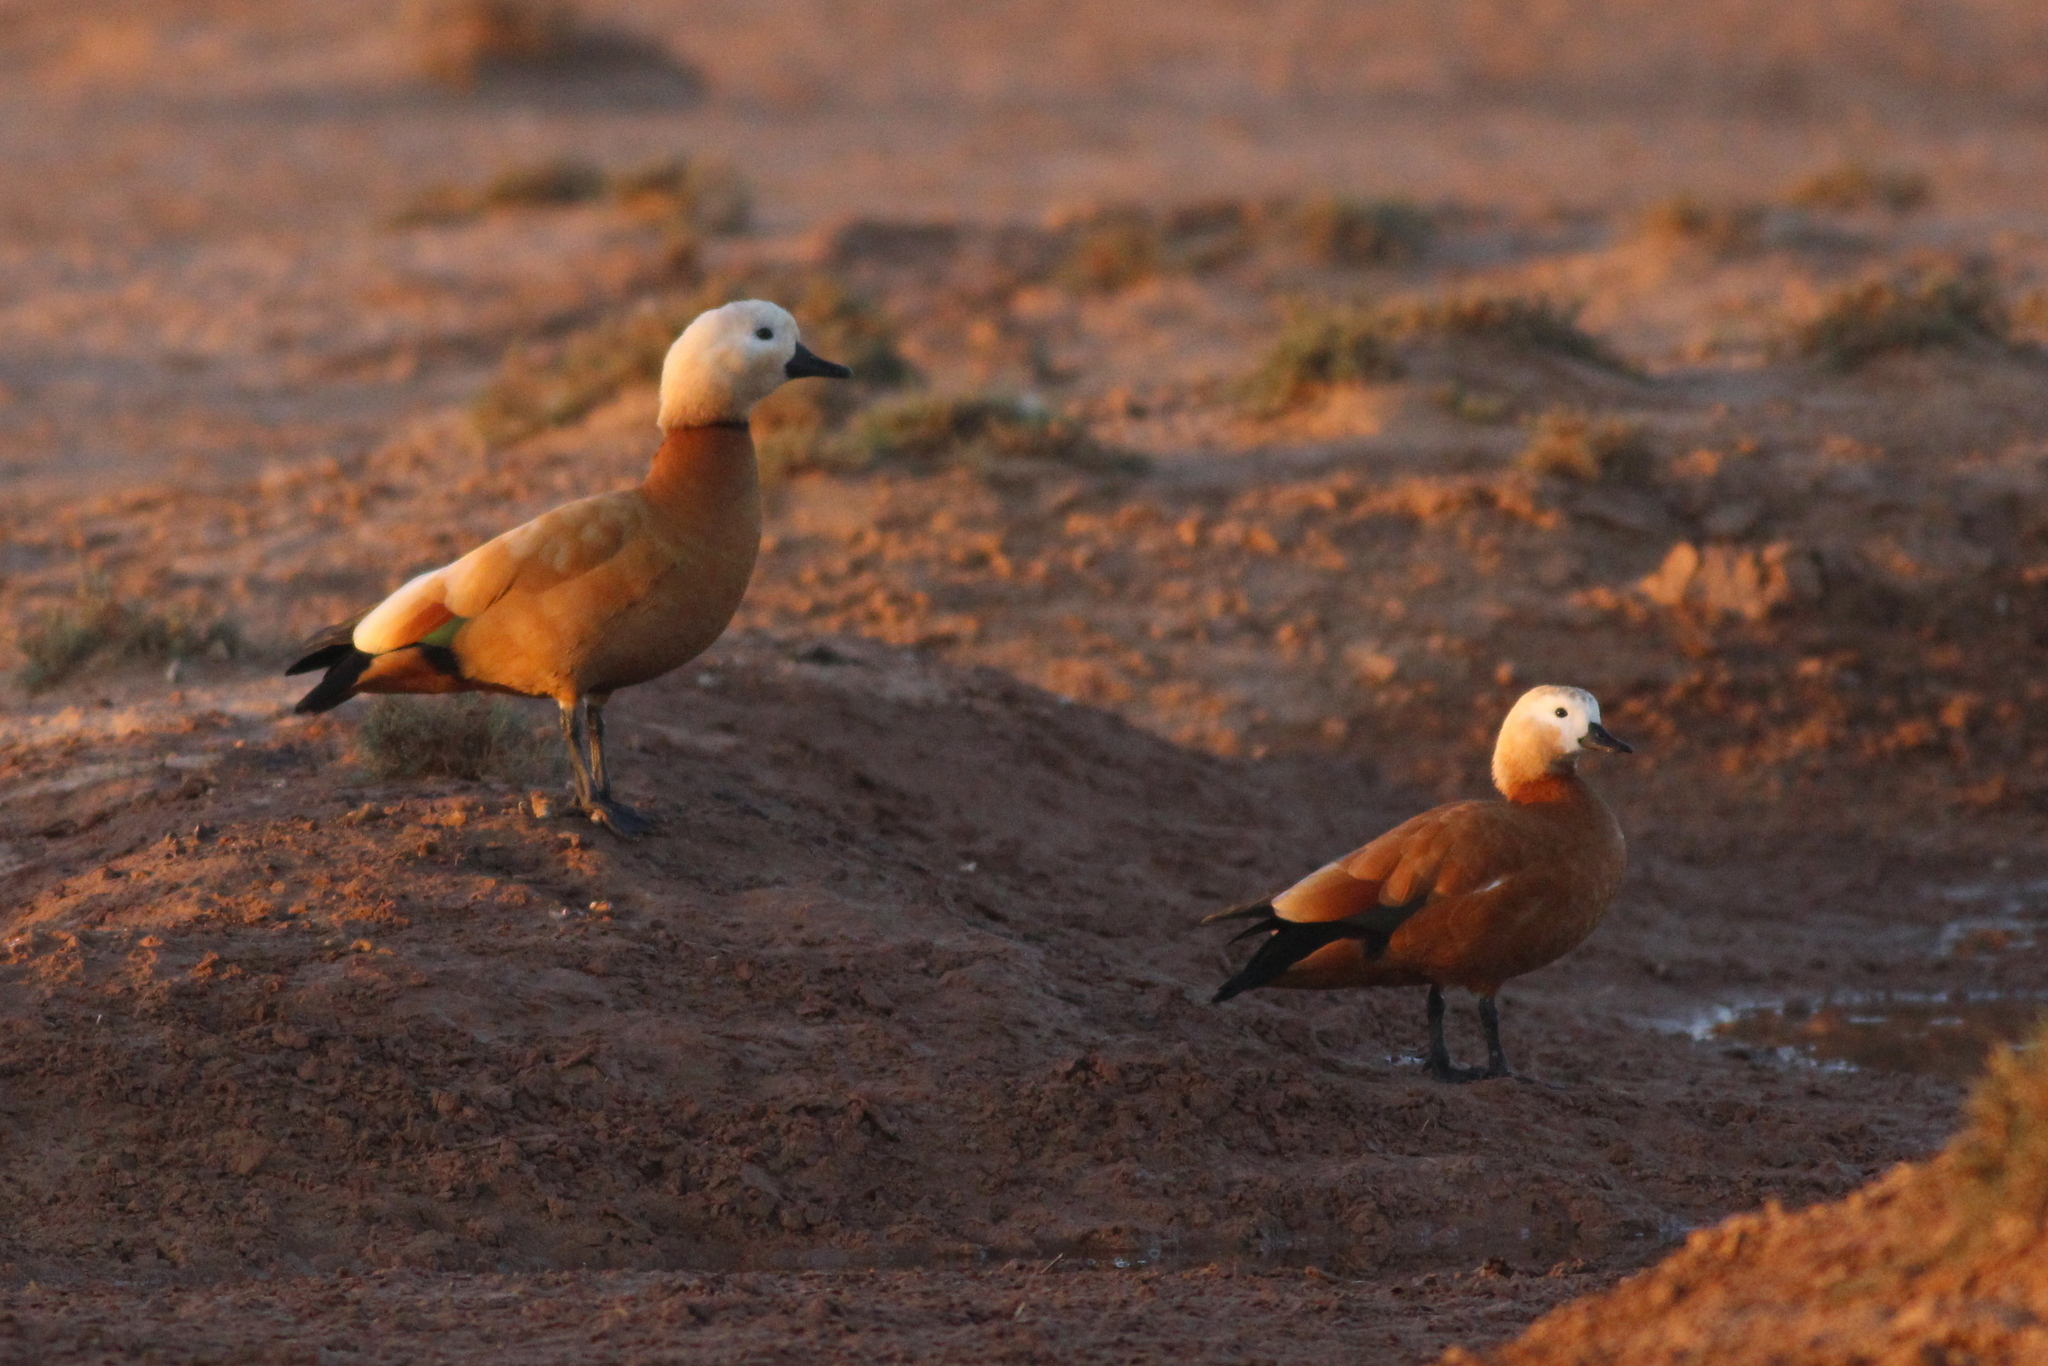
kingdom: Animalia
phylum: Chordata
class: Aves
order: Anseriformes
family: Anatidae
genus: Tadorna
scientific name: Tadorna ferruginea
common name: Ruddy shelduck
